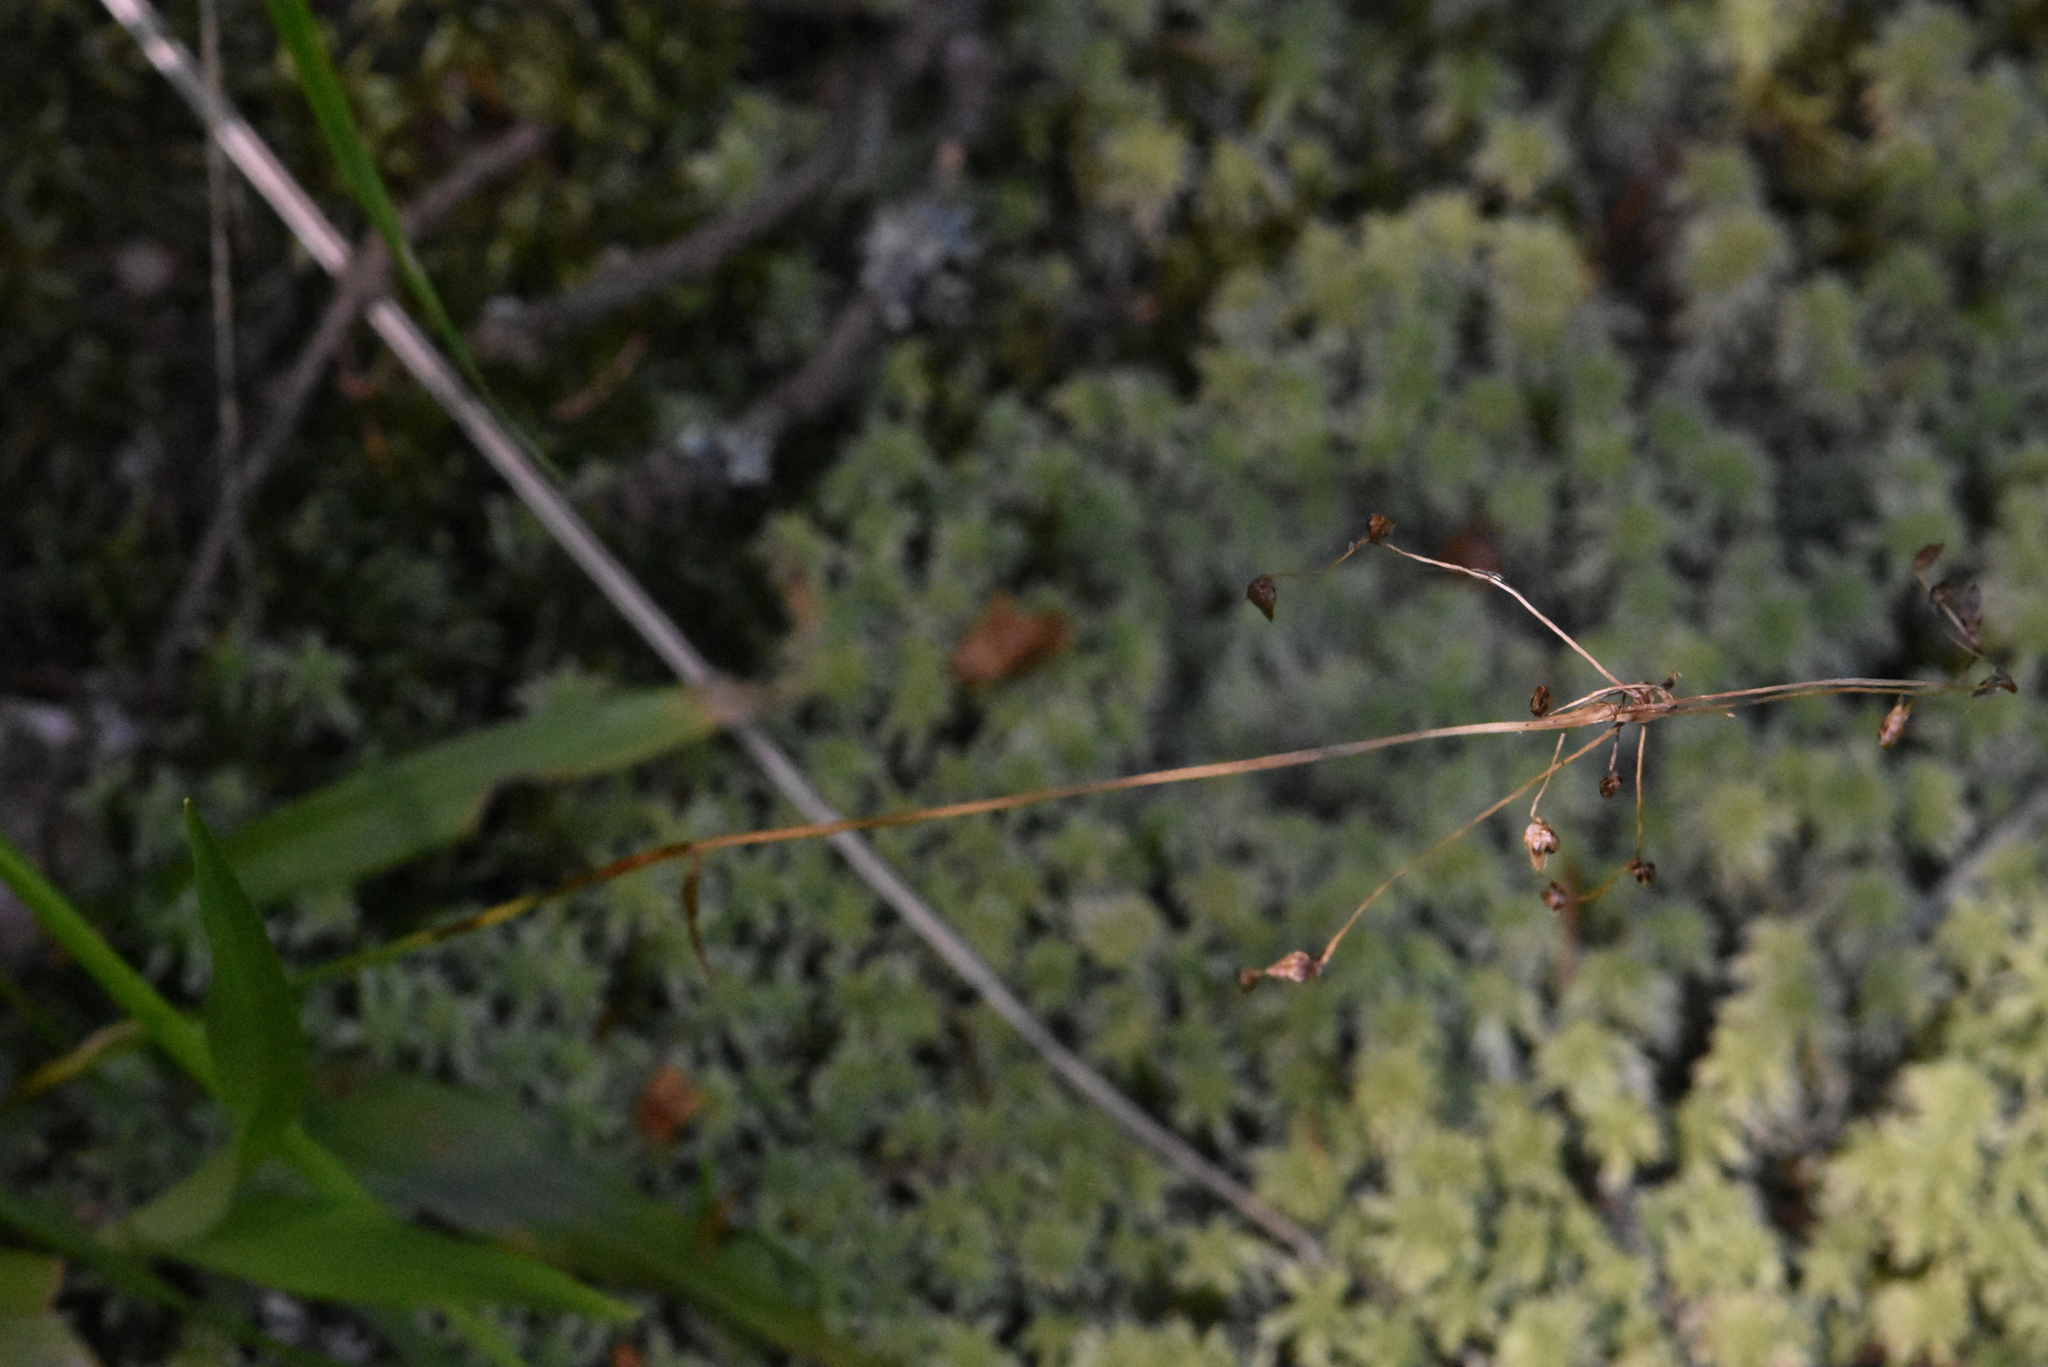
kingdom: Plantae
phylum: Tracheophyta
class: Liliopsida
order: Poales
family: Juncaceae
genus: Luzula
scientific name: Luzula pilosa
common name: Hairy wood-rush
